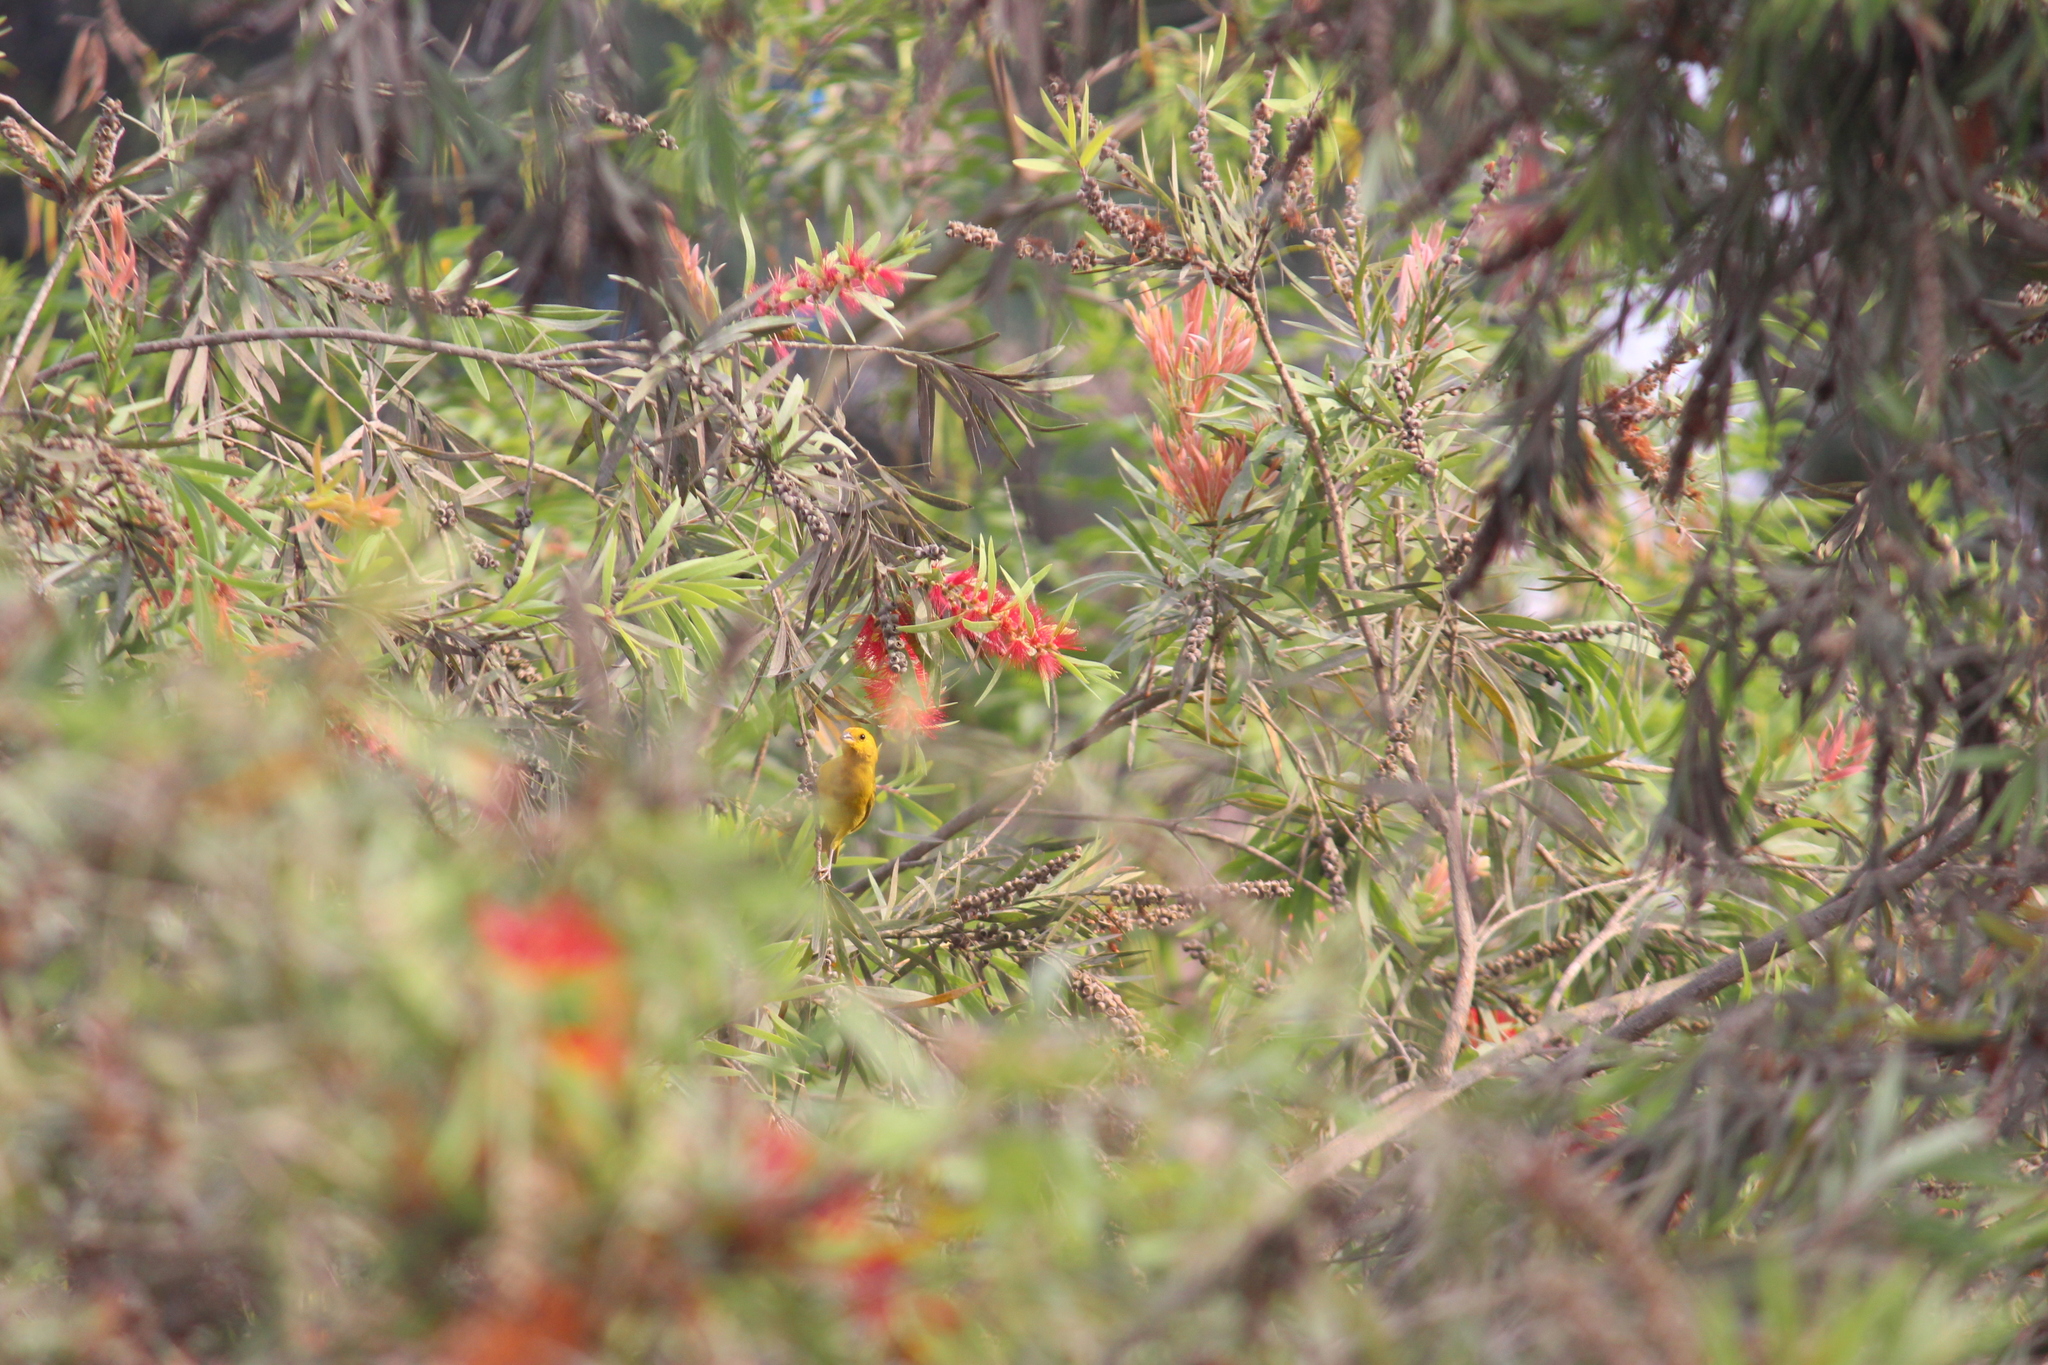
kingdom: Animalia
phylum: Chordata
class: Aves
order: Passeriformes
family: Thraupidae
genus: Sicalis
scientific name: Sicalis flaveola
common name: Saffron finch
